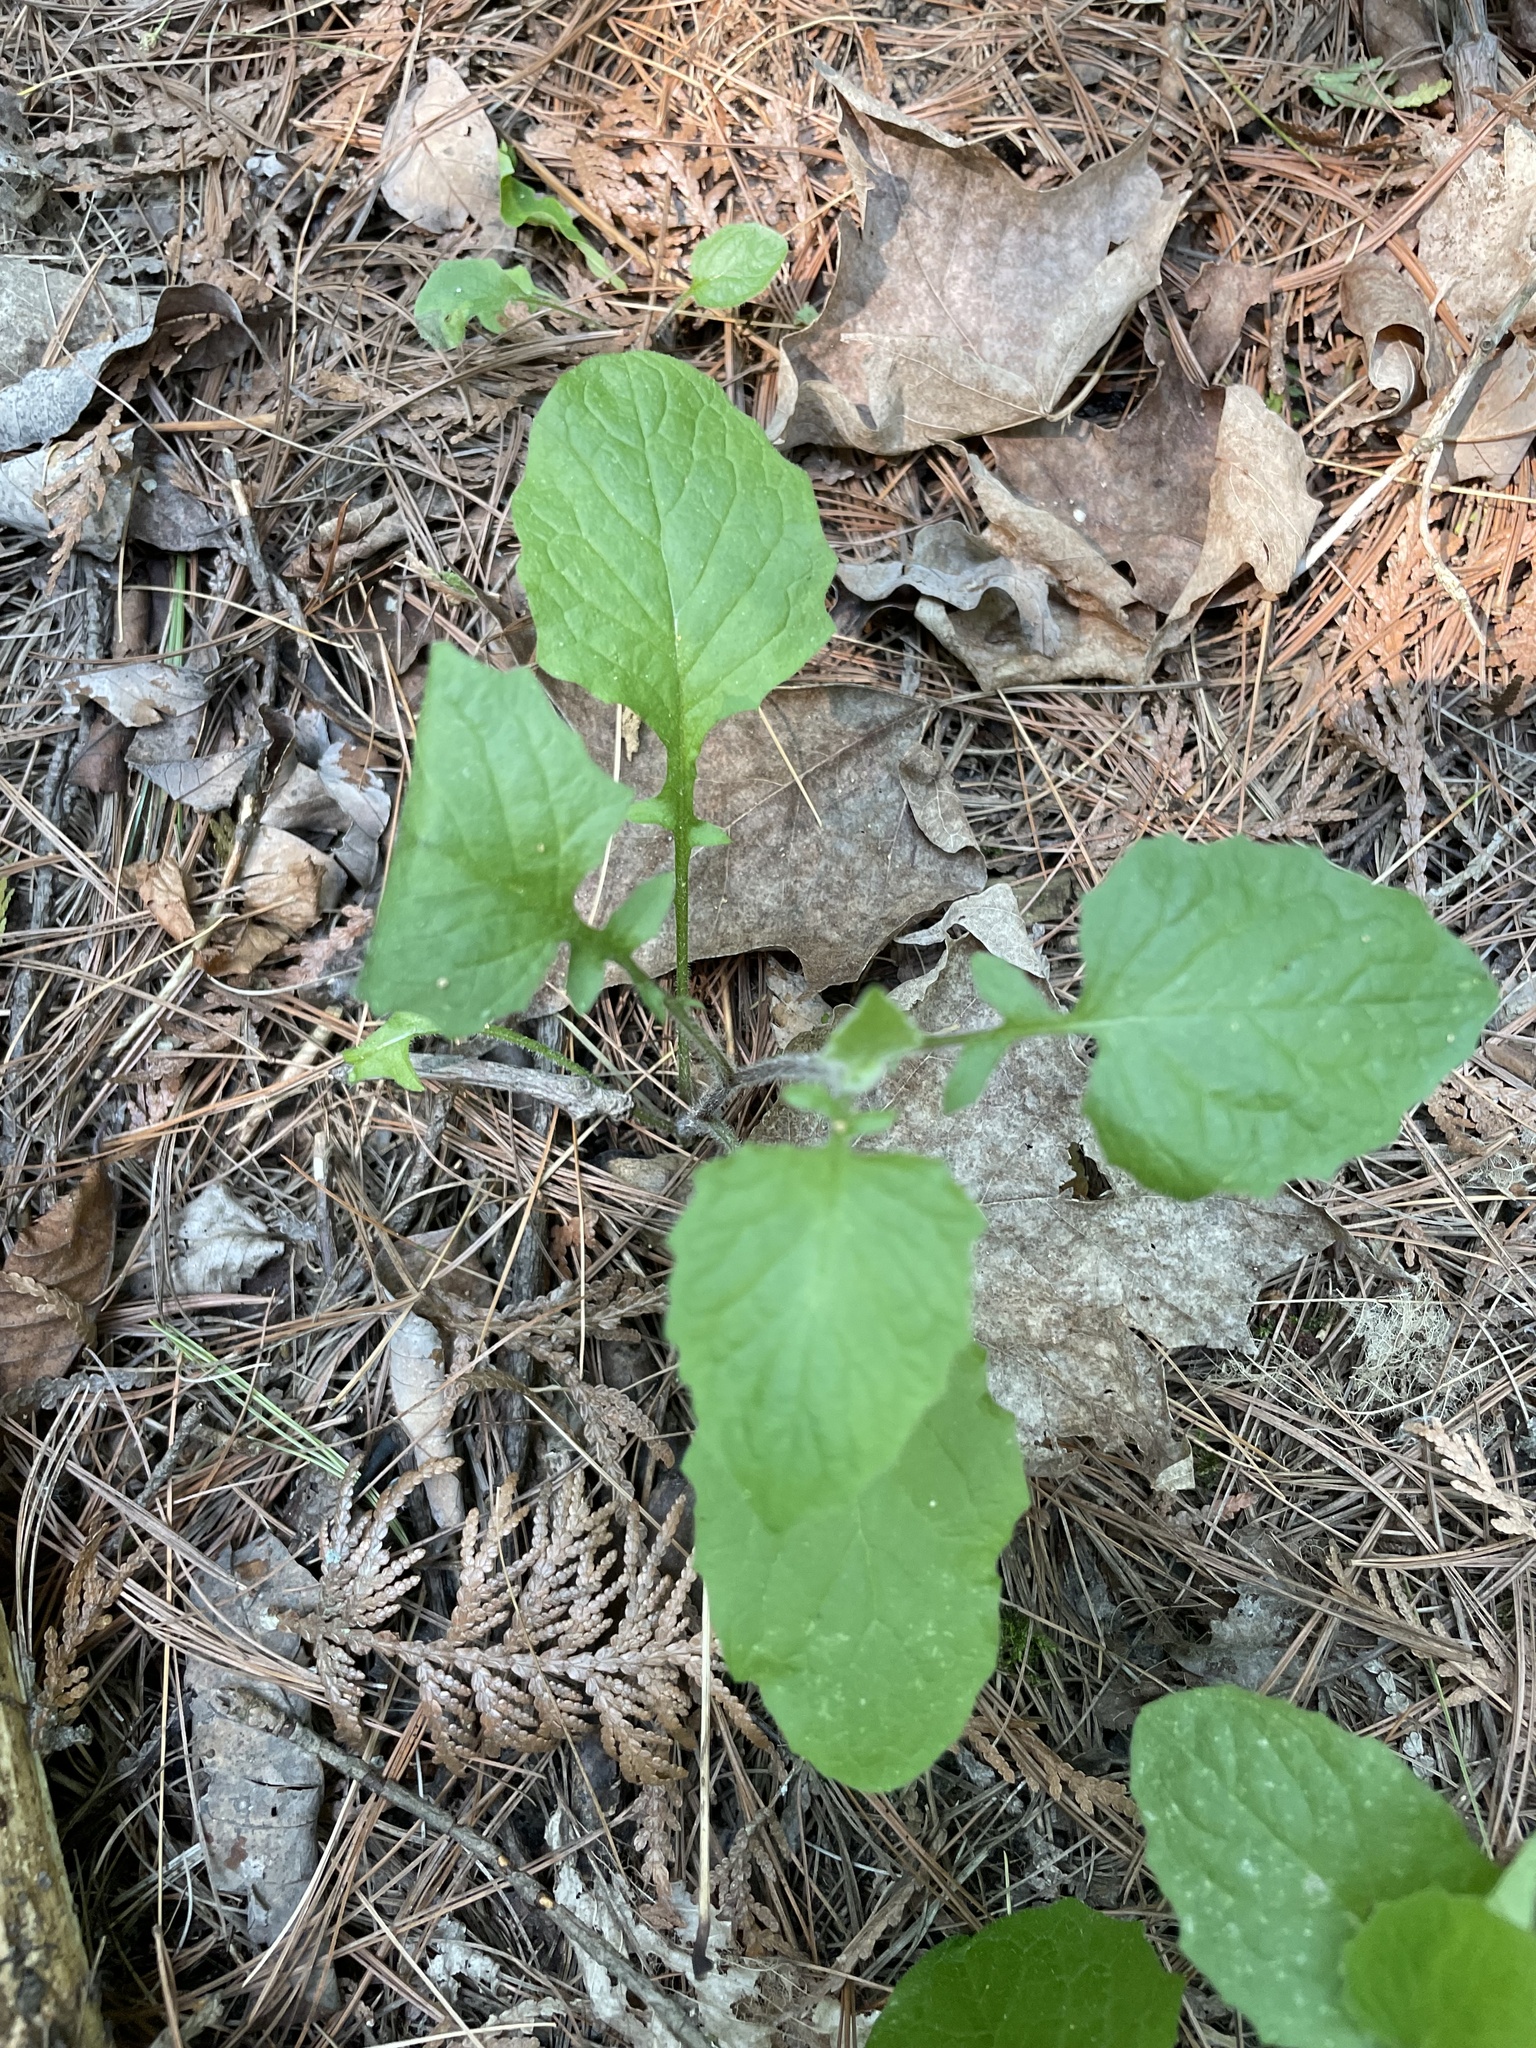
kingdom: Plantae
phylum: Tracheophyta
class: Magnoliopsida
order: Asterales
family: Asteraceae
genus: Lapsana
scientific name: Lapsana communis
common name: Nipplewort
